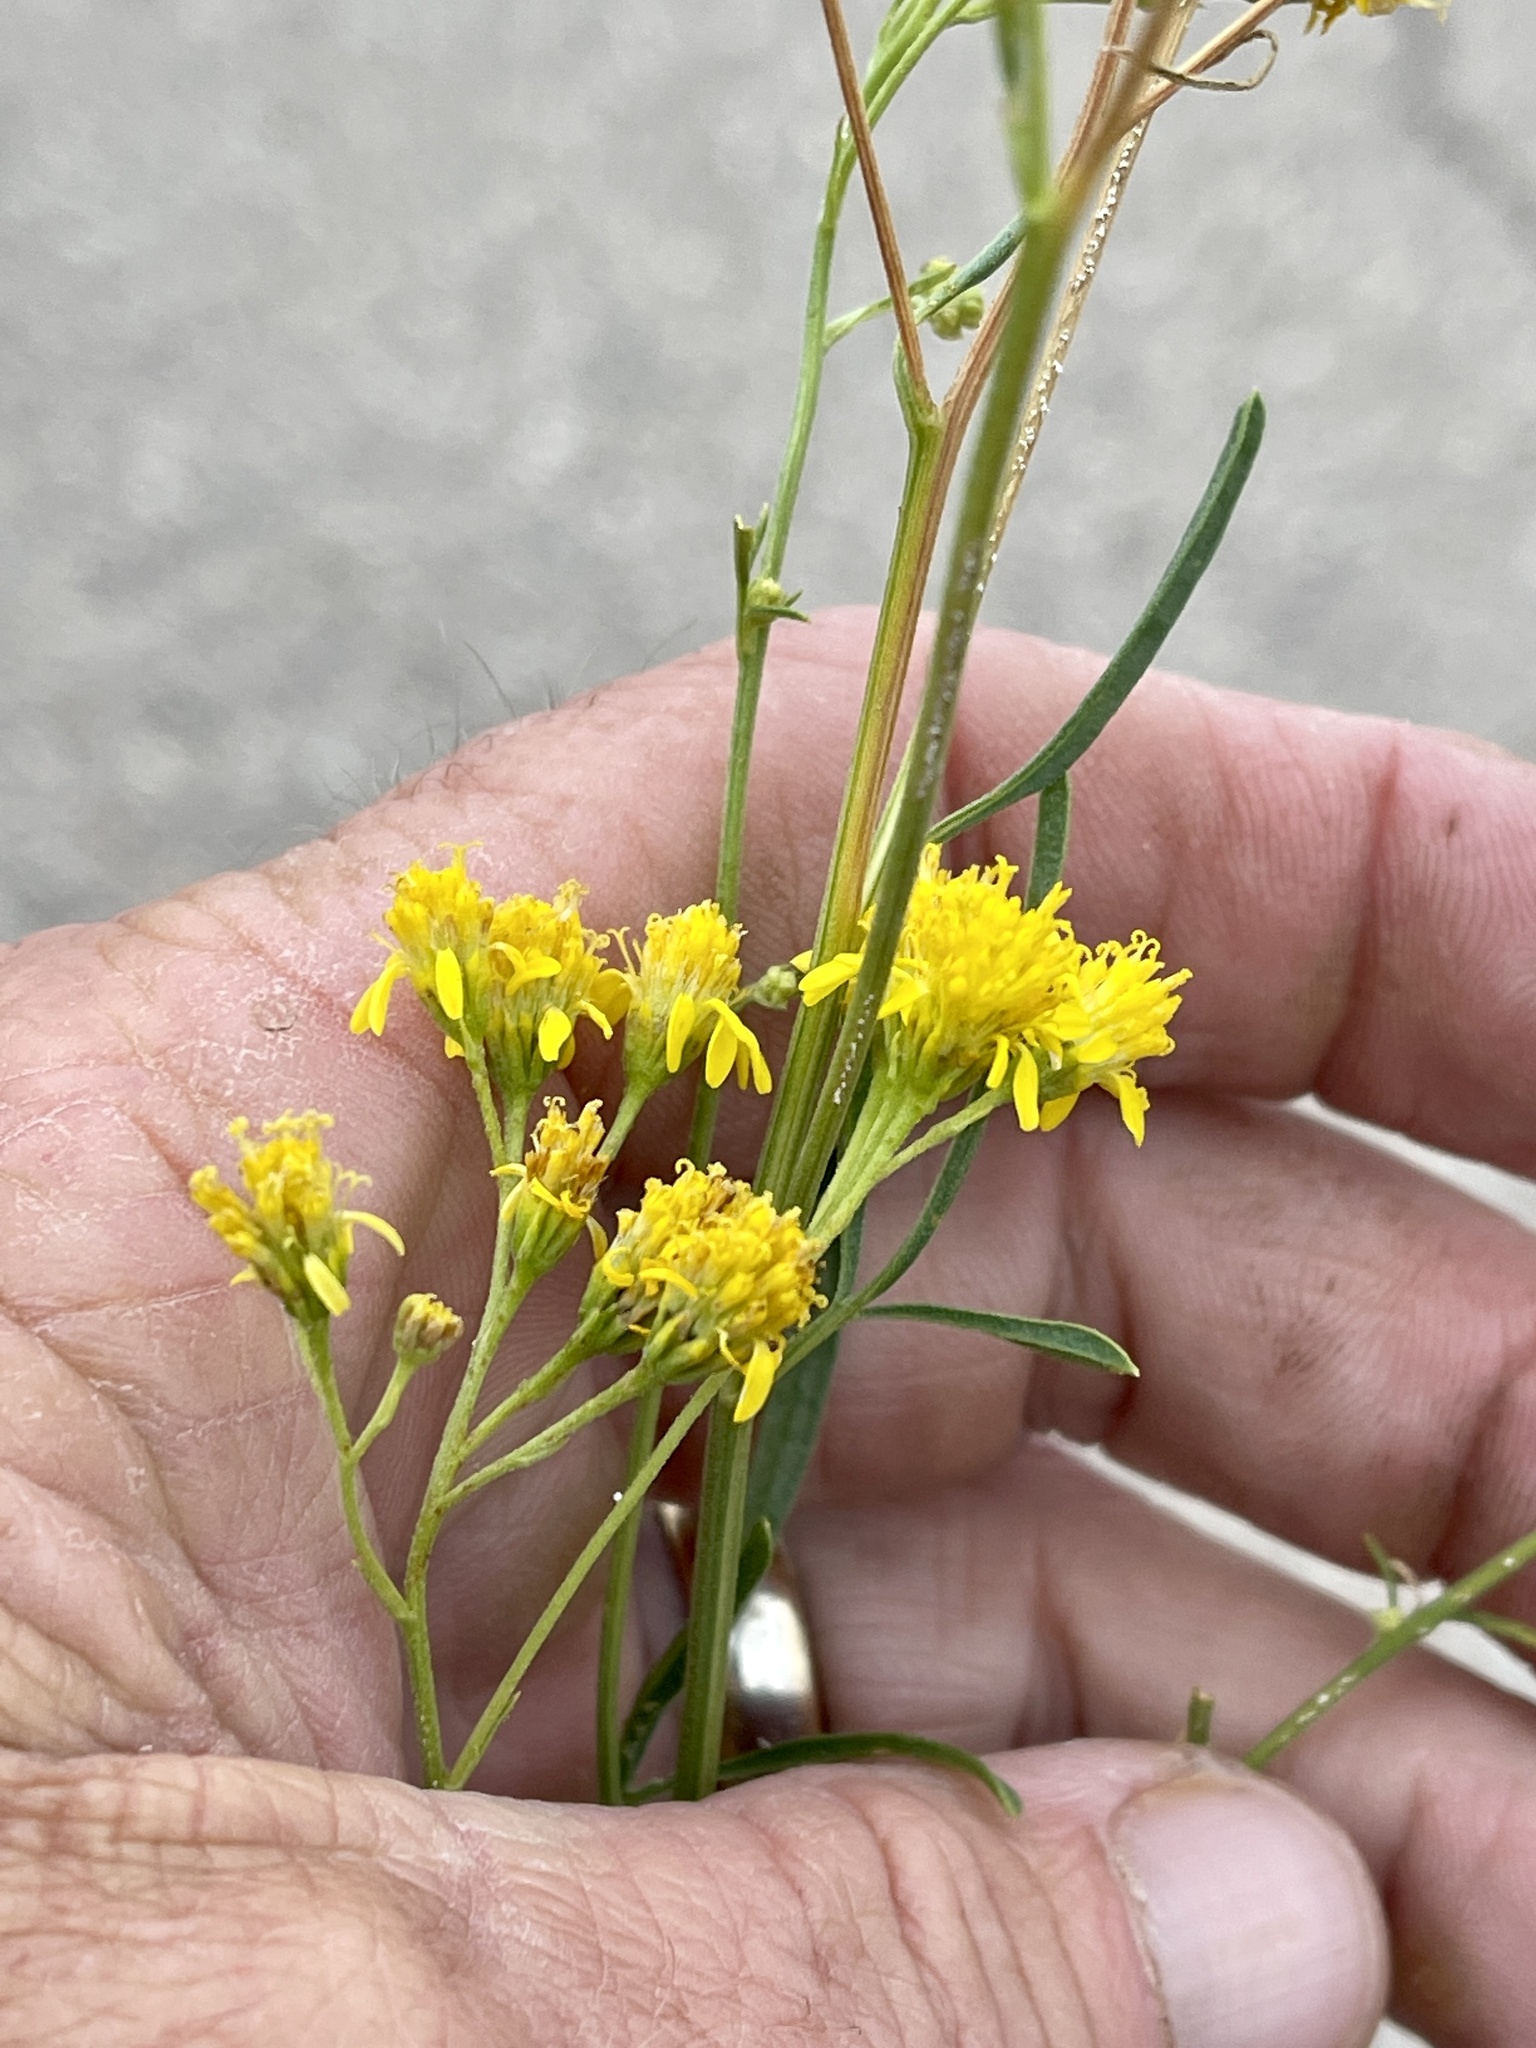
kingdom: Plantae
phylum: Tracheophyta
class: Magnoliopsida
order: Asterales
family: Asteraceae
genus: Hymenothrix
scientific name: Hymenothrix wislizeni
